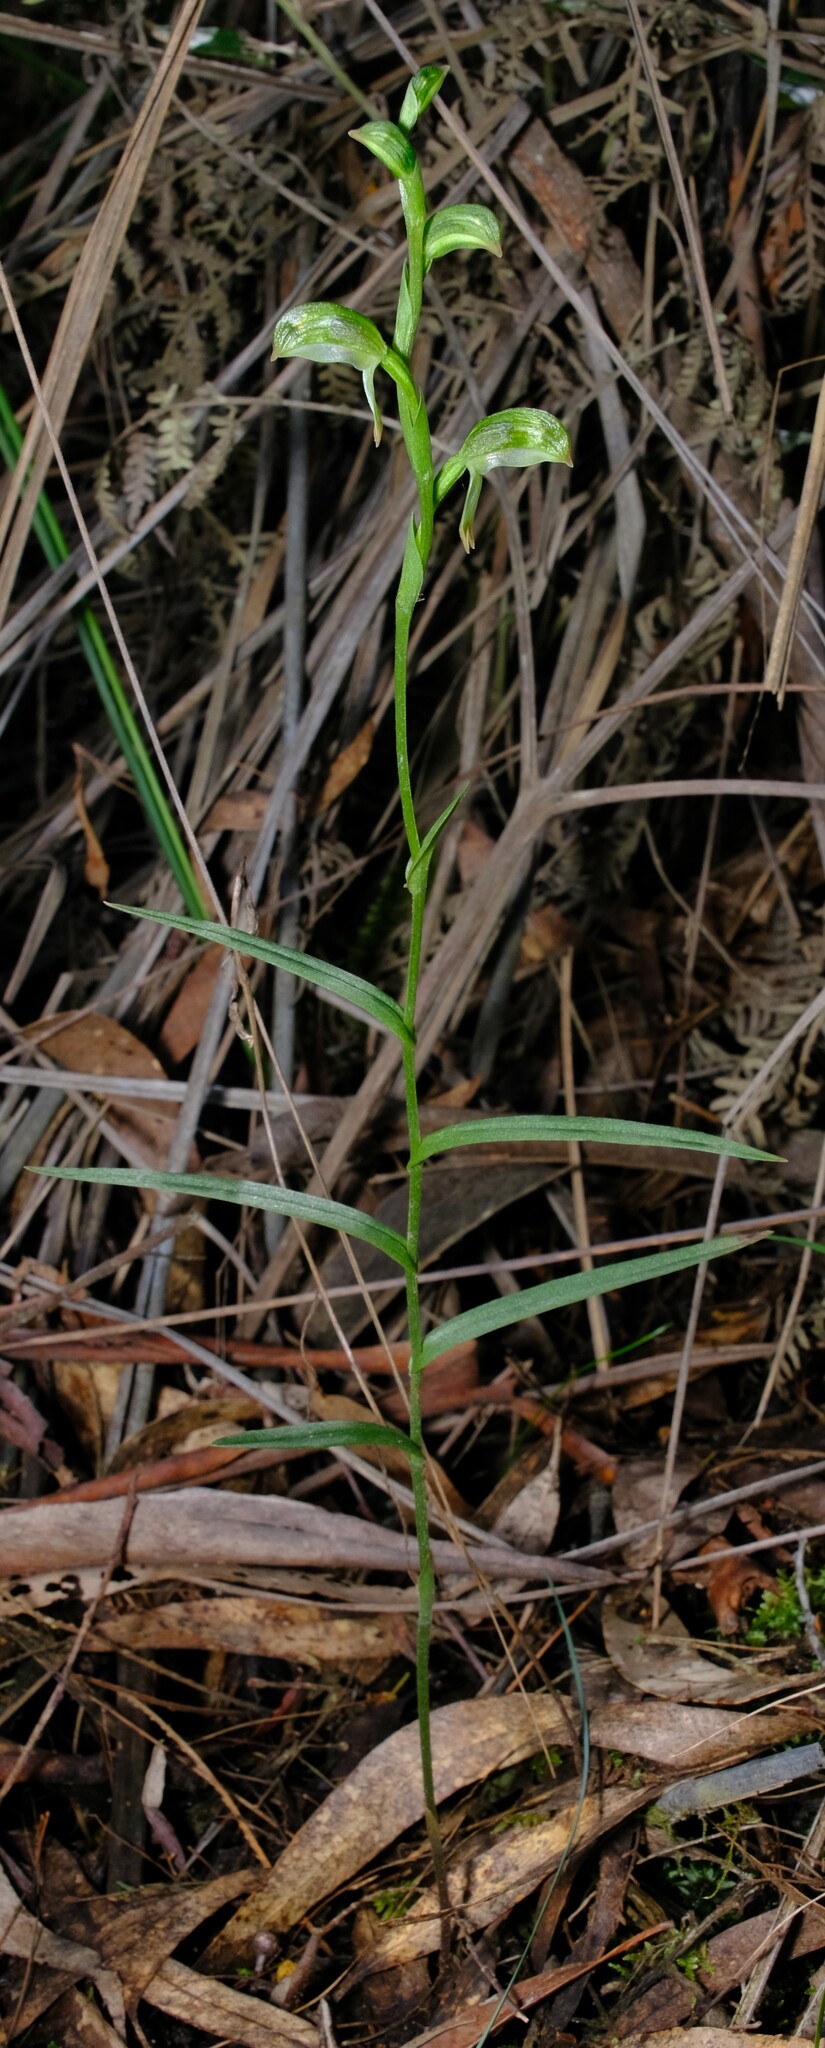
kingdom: Plantae
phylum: Tracheophyta
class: Liliopsida
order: Asparagales
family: Orchidaceae
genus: Pterostylis
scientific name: Pterostylis melagramma
